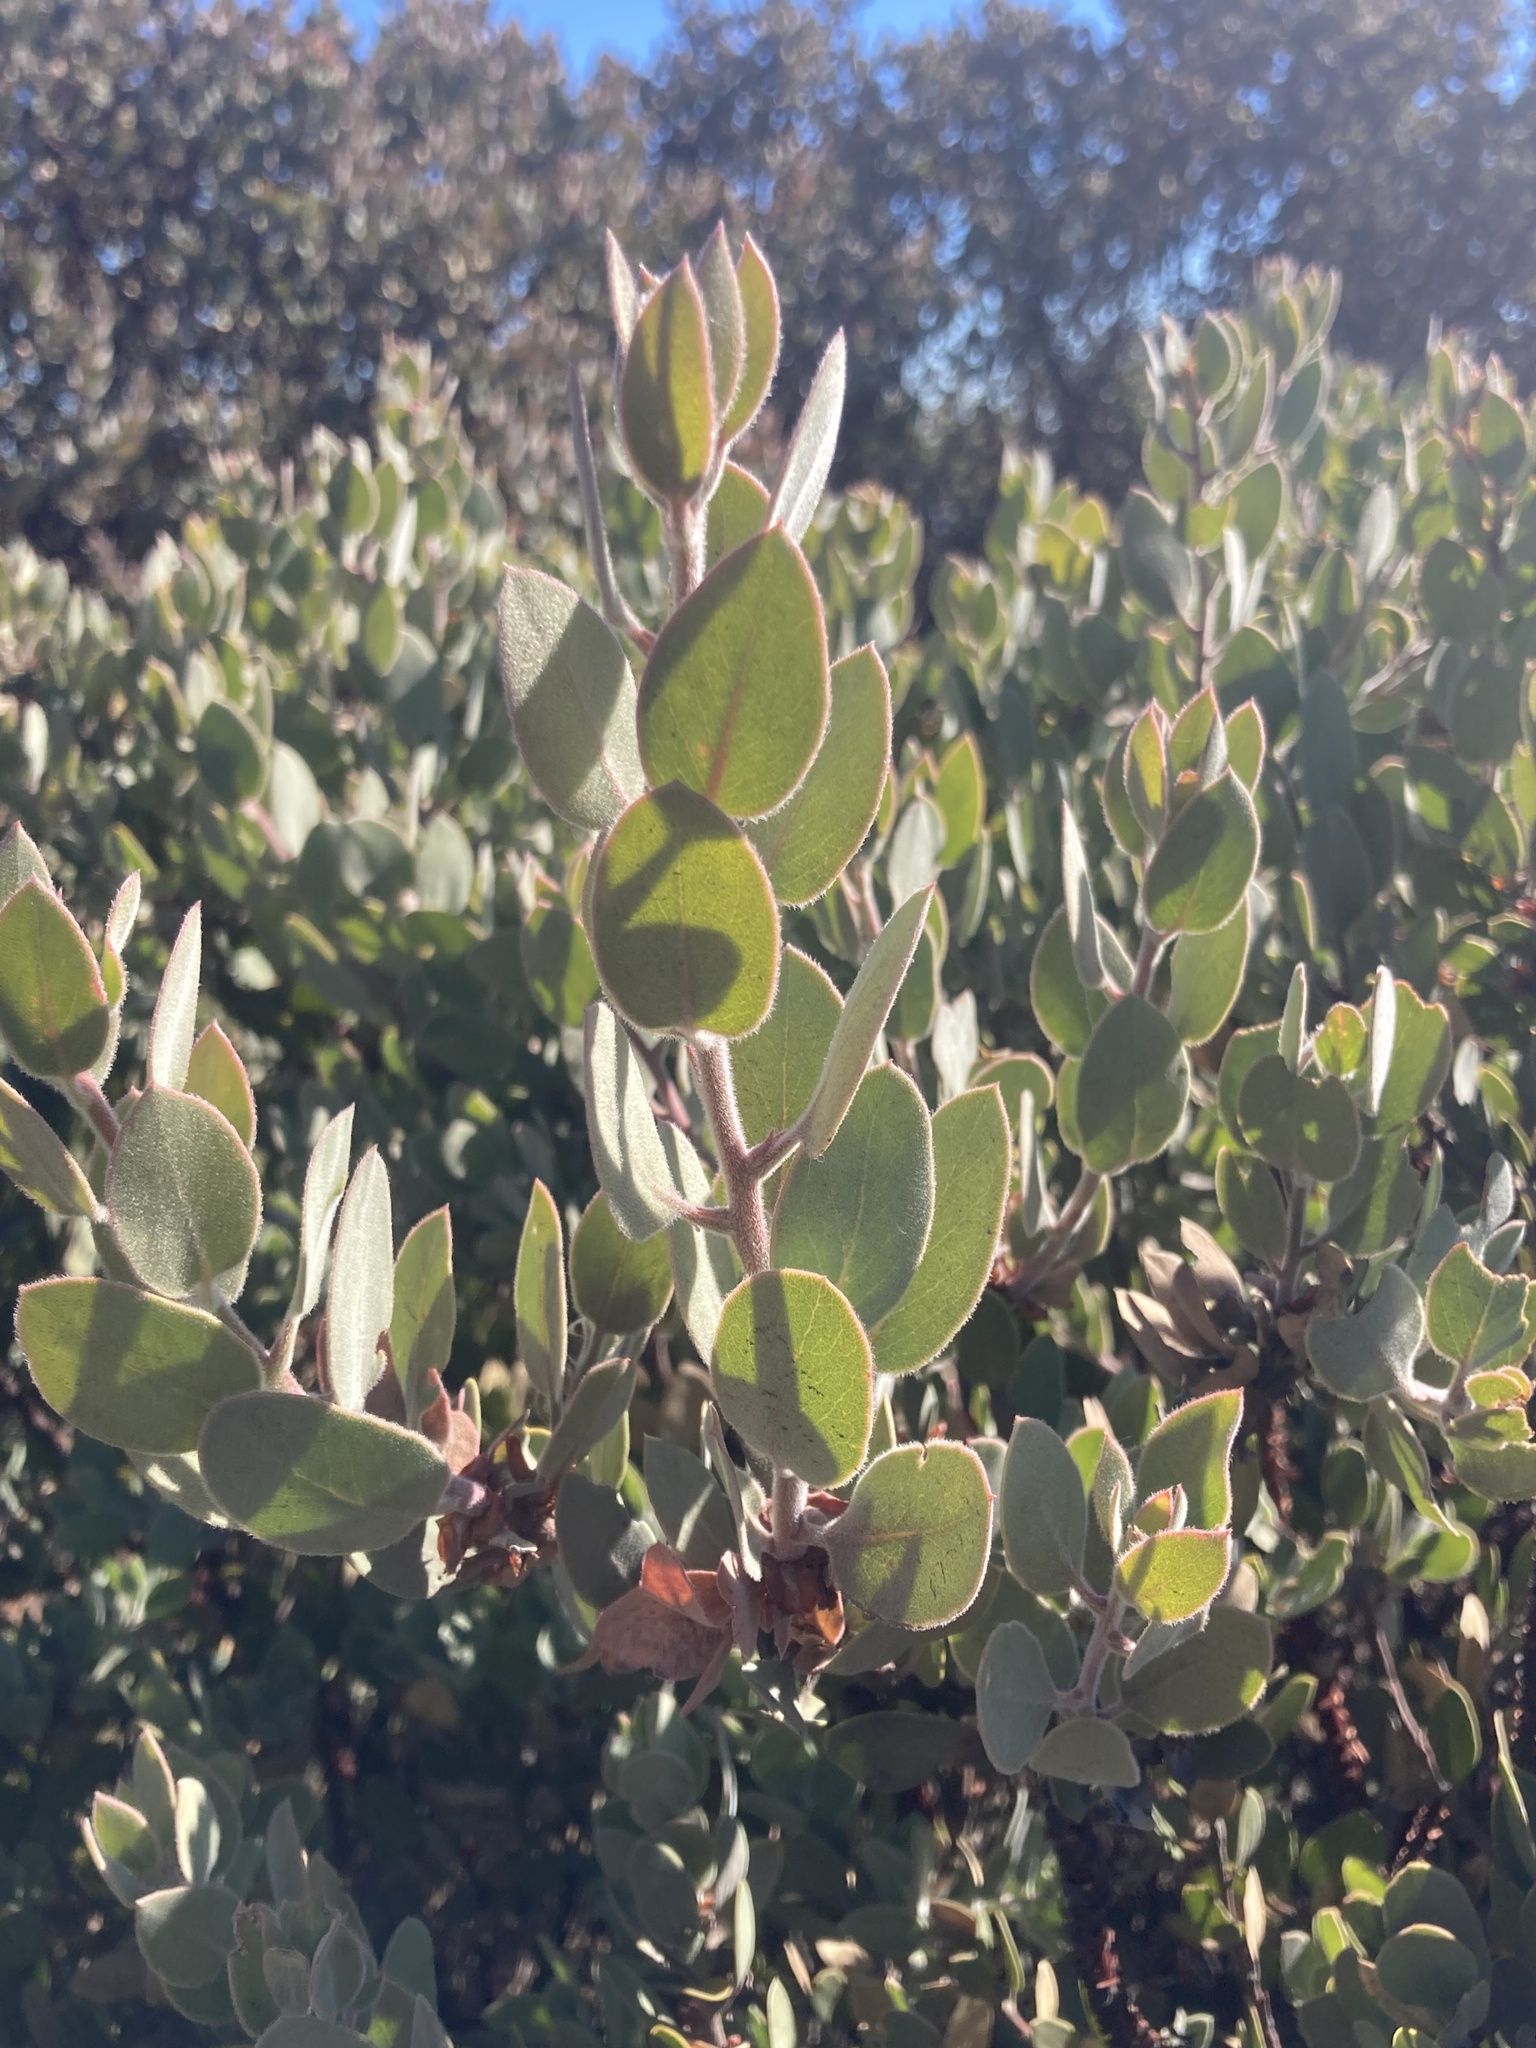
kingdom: Plantae
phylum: Tracheophyta
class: Magnoliopsida
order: Ericales
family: Ericaceae
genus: Arctostaphylos
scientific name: Arctostaphylos obispoensis
